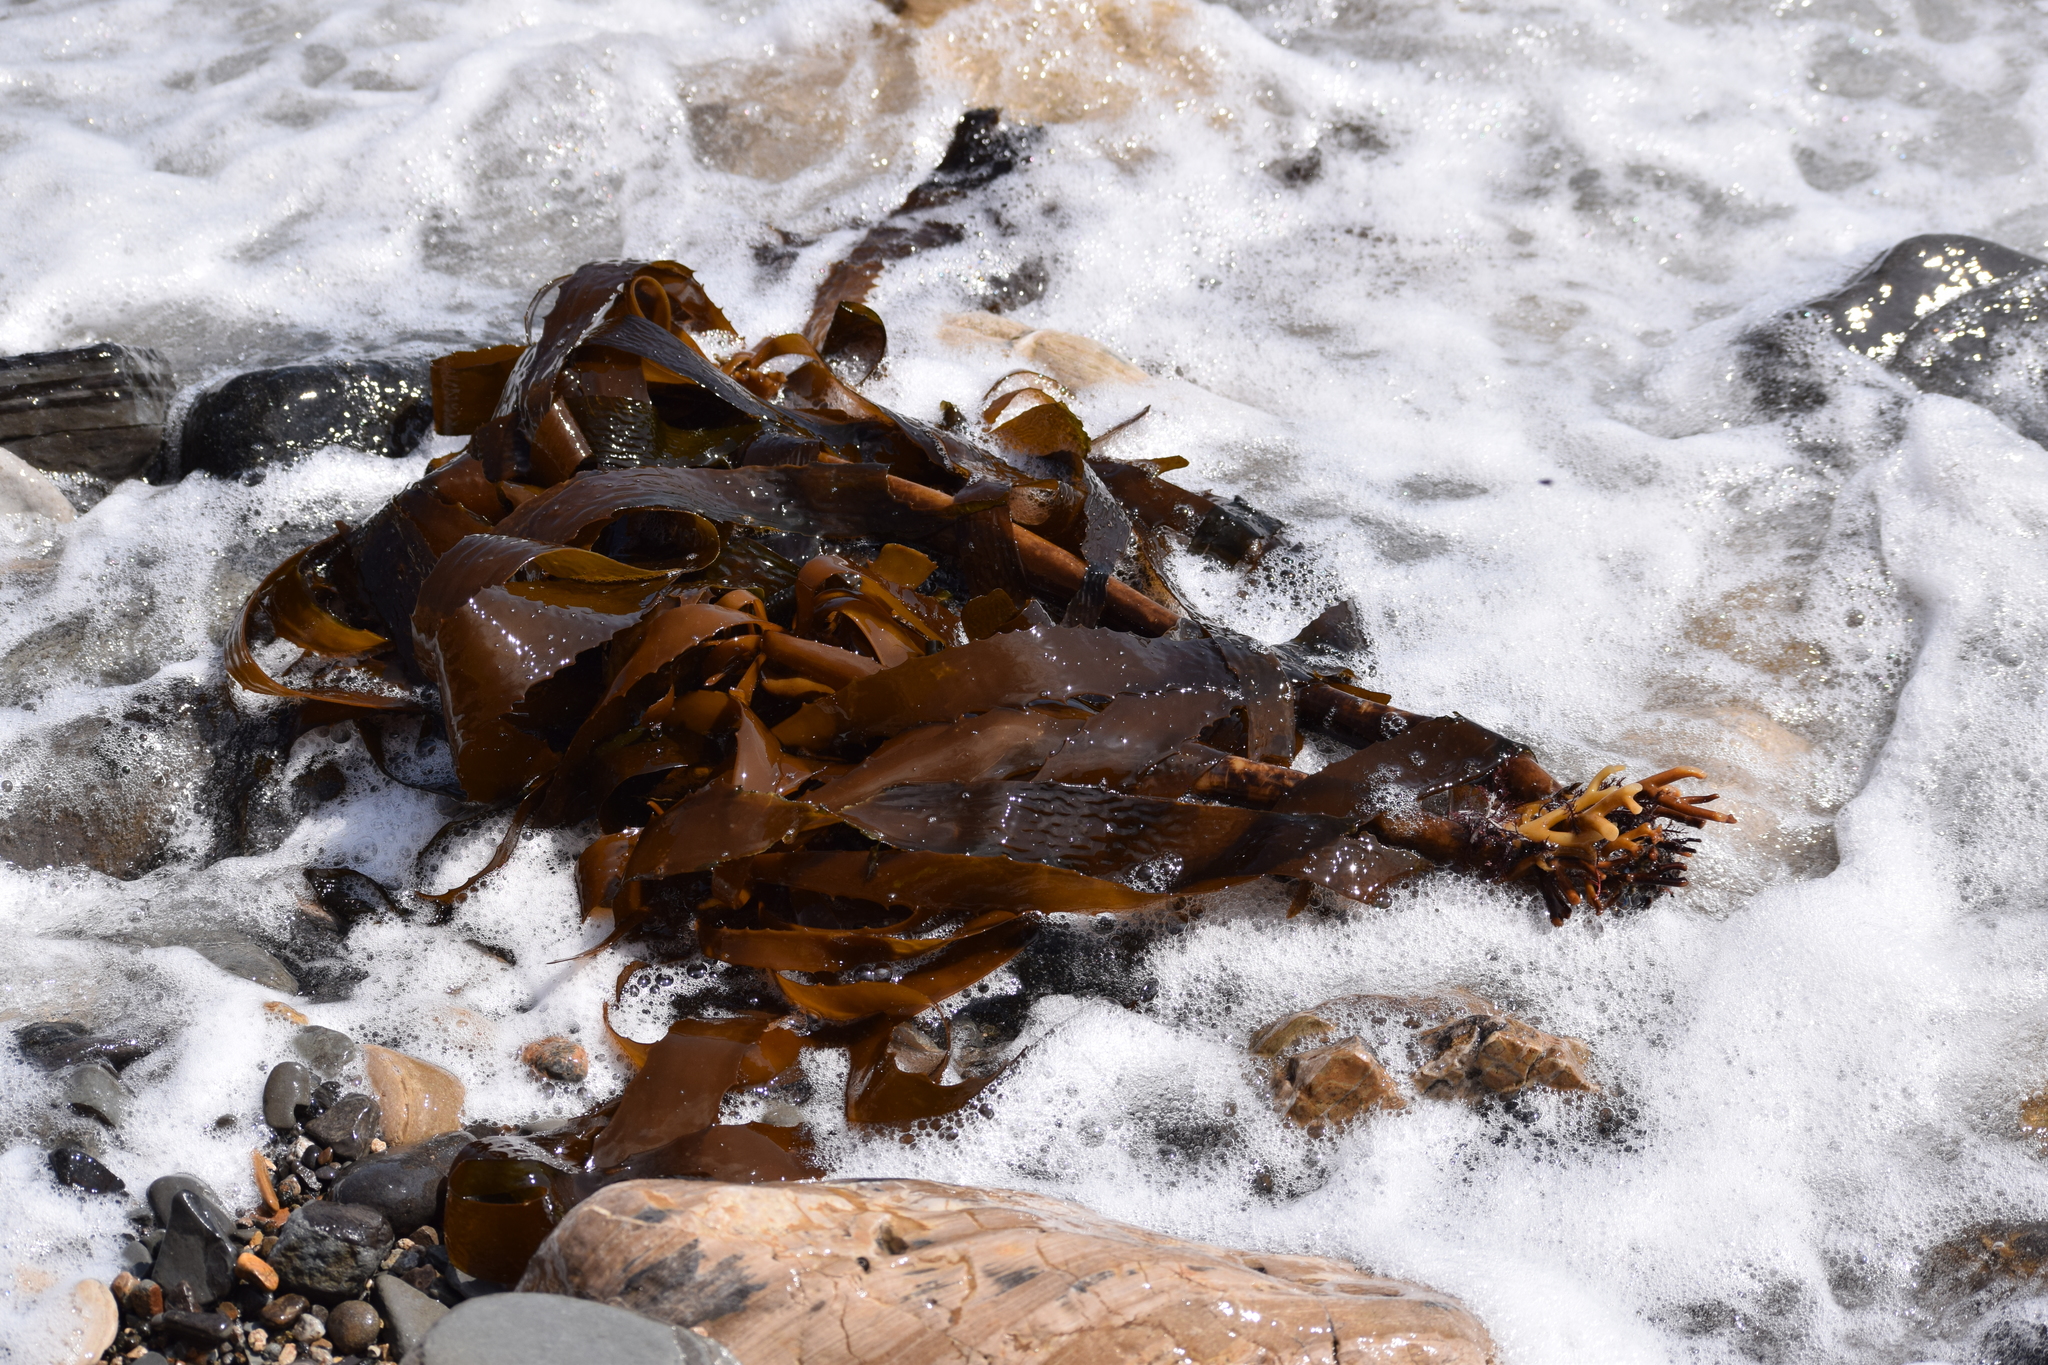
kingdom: Chromista
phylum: Ochrophyta
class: Phaeophyceae
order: Laminariales
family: Lessoniaceae
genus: Eisenia
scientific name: Eisenia arborea
